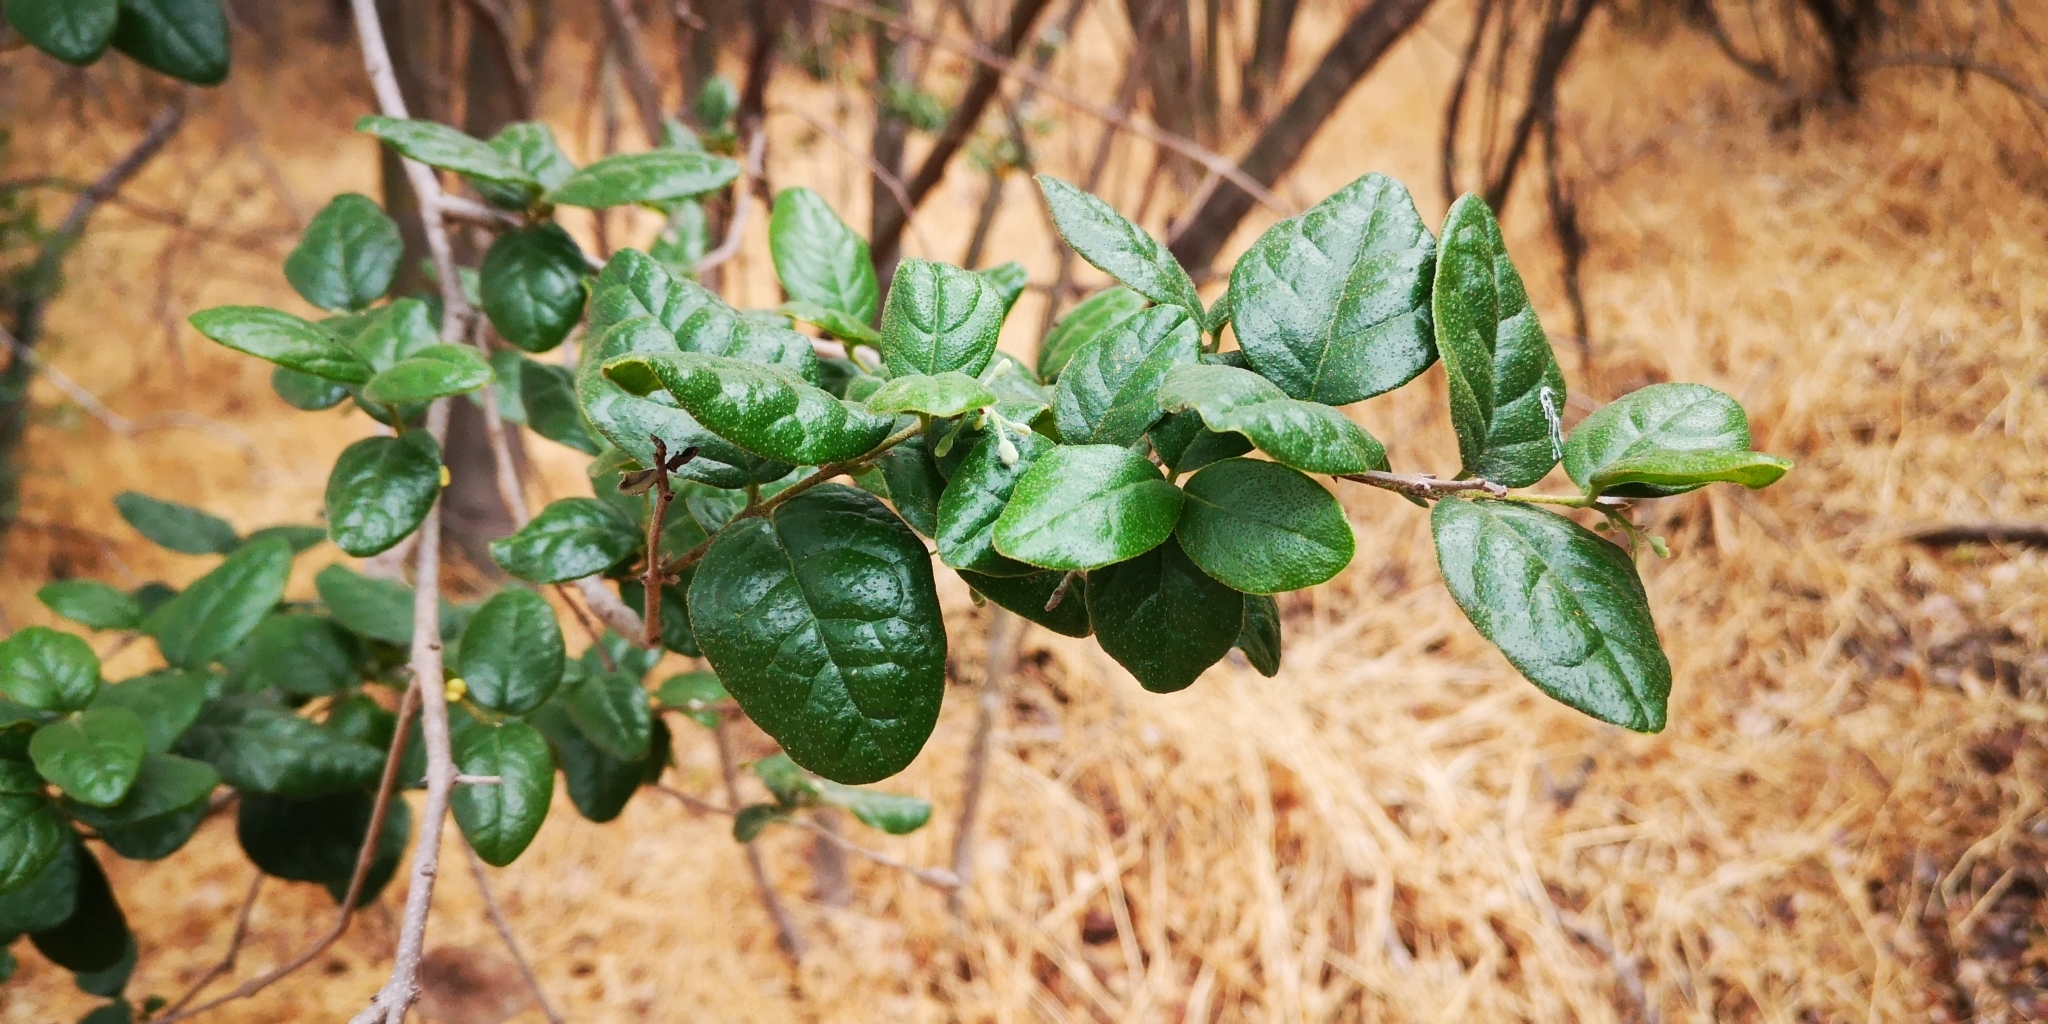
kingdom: Plantae
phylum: Tracheophyta
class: Magnoliopsida
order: Laurales
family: Monimiaceae
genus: Peumus
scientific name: Peumus boldus
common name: Boldo
